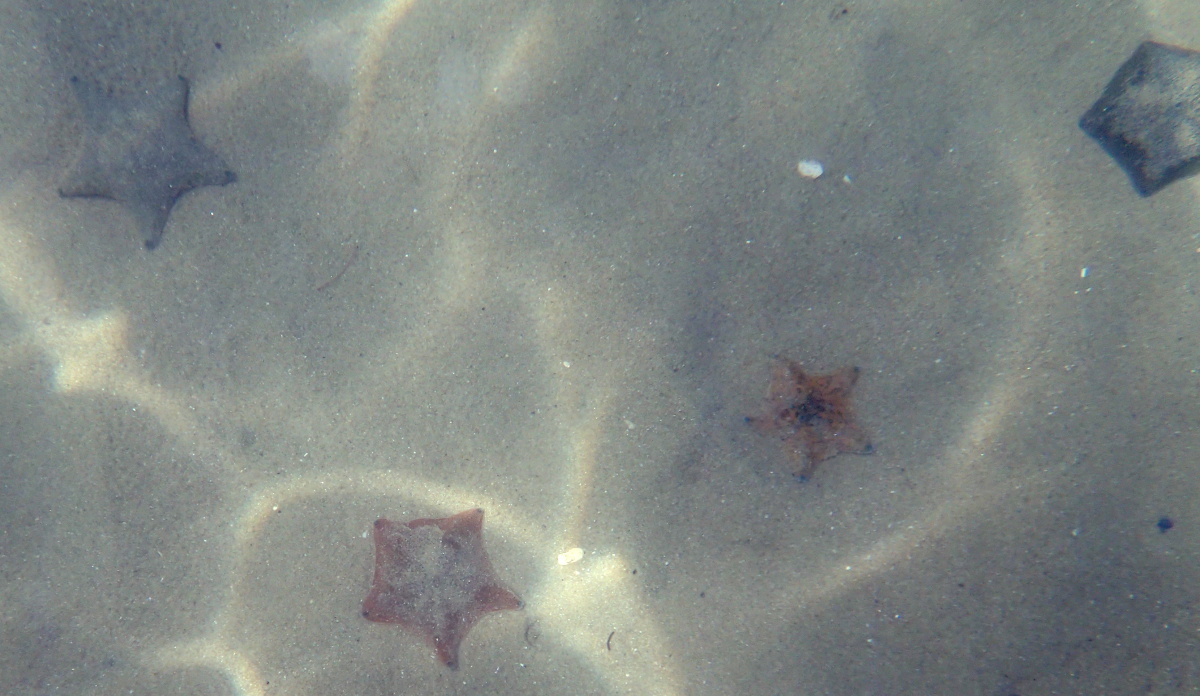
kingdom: Animalia
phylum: Echinodermata
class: Asteroidea
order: Valvatida
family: Asterinidae
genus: Patiriella
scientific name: Patiriella regularis
